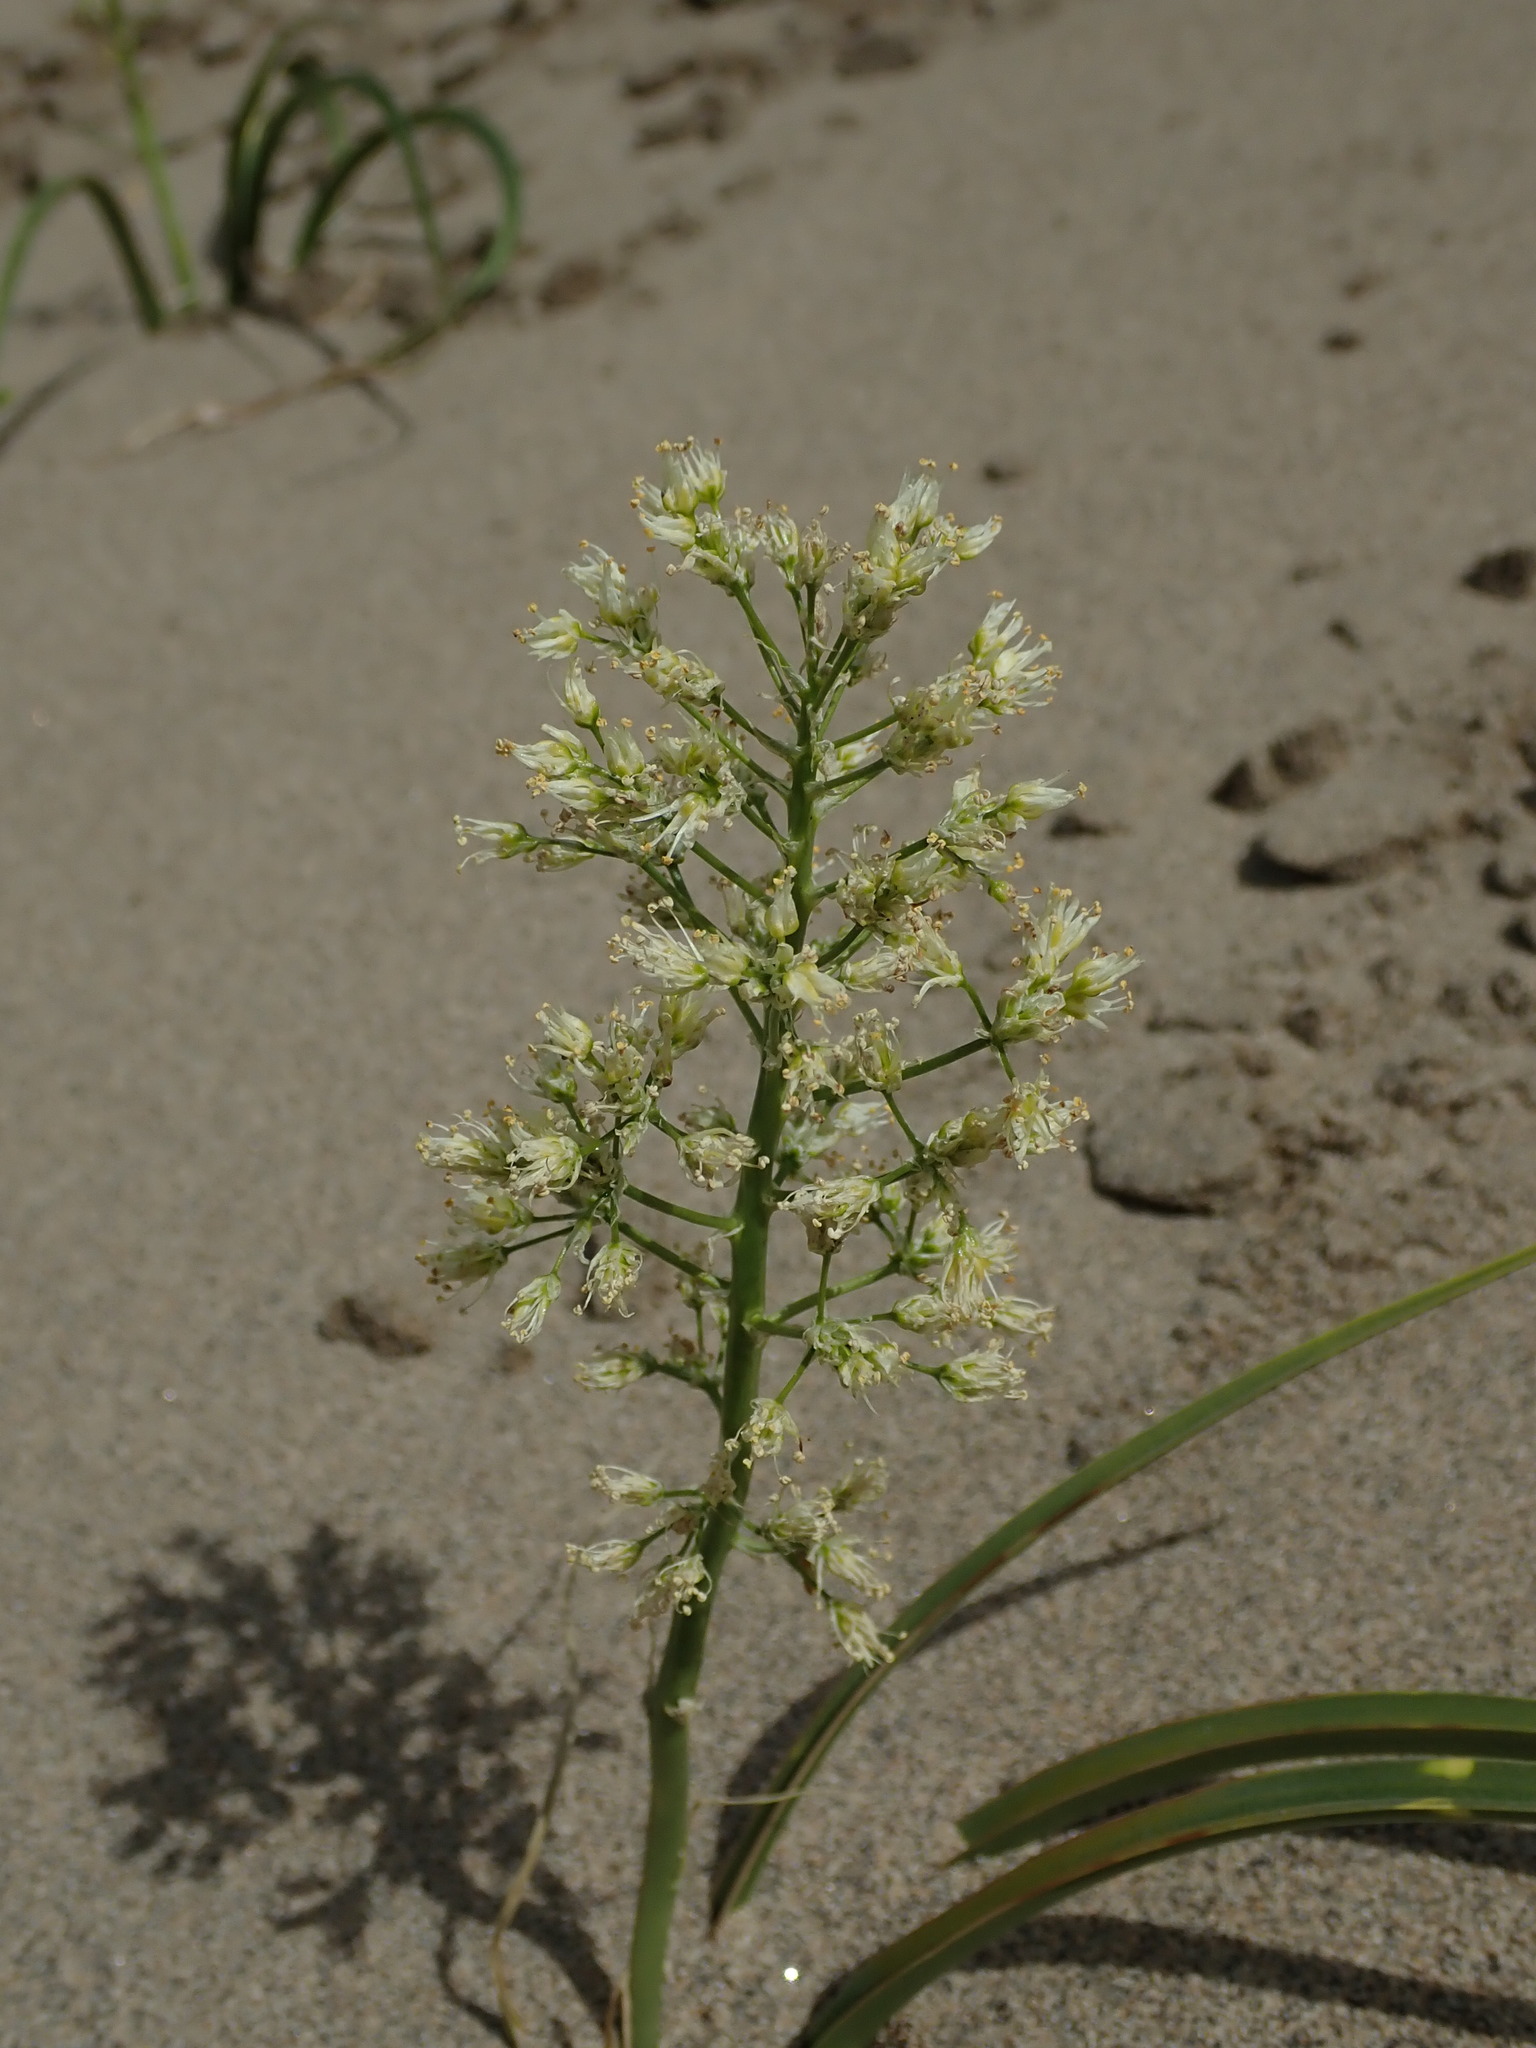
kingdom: Plantae
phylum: Tracheophyta
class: Liliopsida
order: Liliales
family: Melanthiaceae
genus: Toxicoscordion
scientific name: Toxicoscordion paniculatum
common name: Foothill death camas
